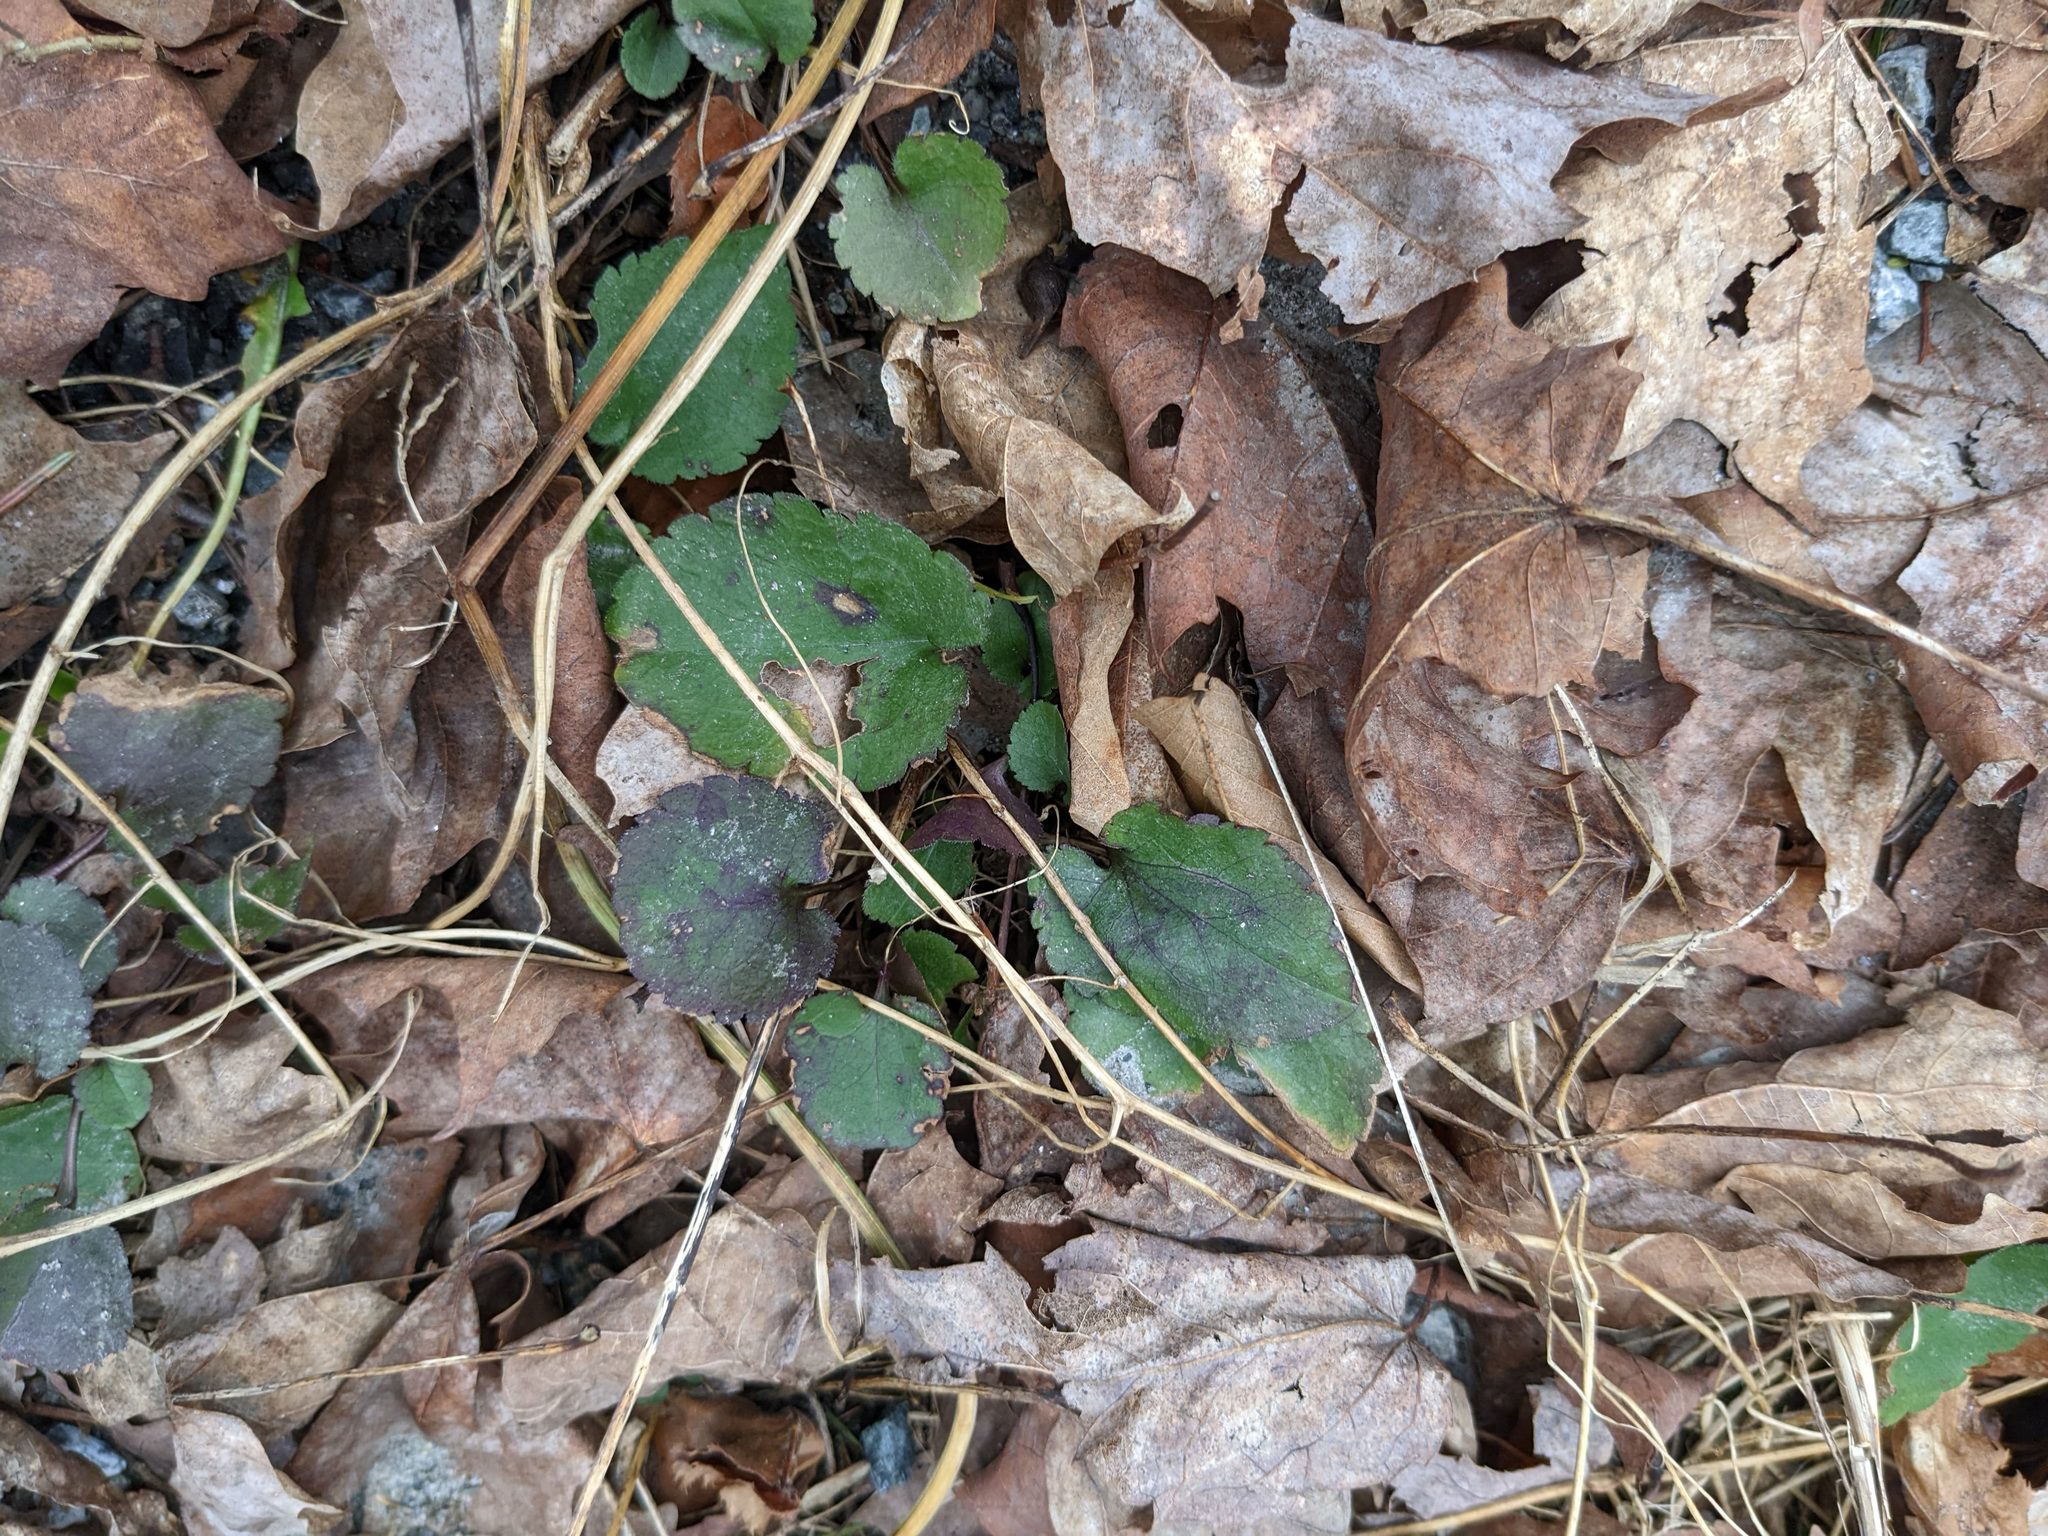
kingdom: Plantae
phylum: Tracheophyta
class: Magnoliopsida
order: Rosales
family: Rosaceae
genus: Dalibarda
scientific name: Dalibarda repens
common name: Dewdrop
